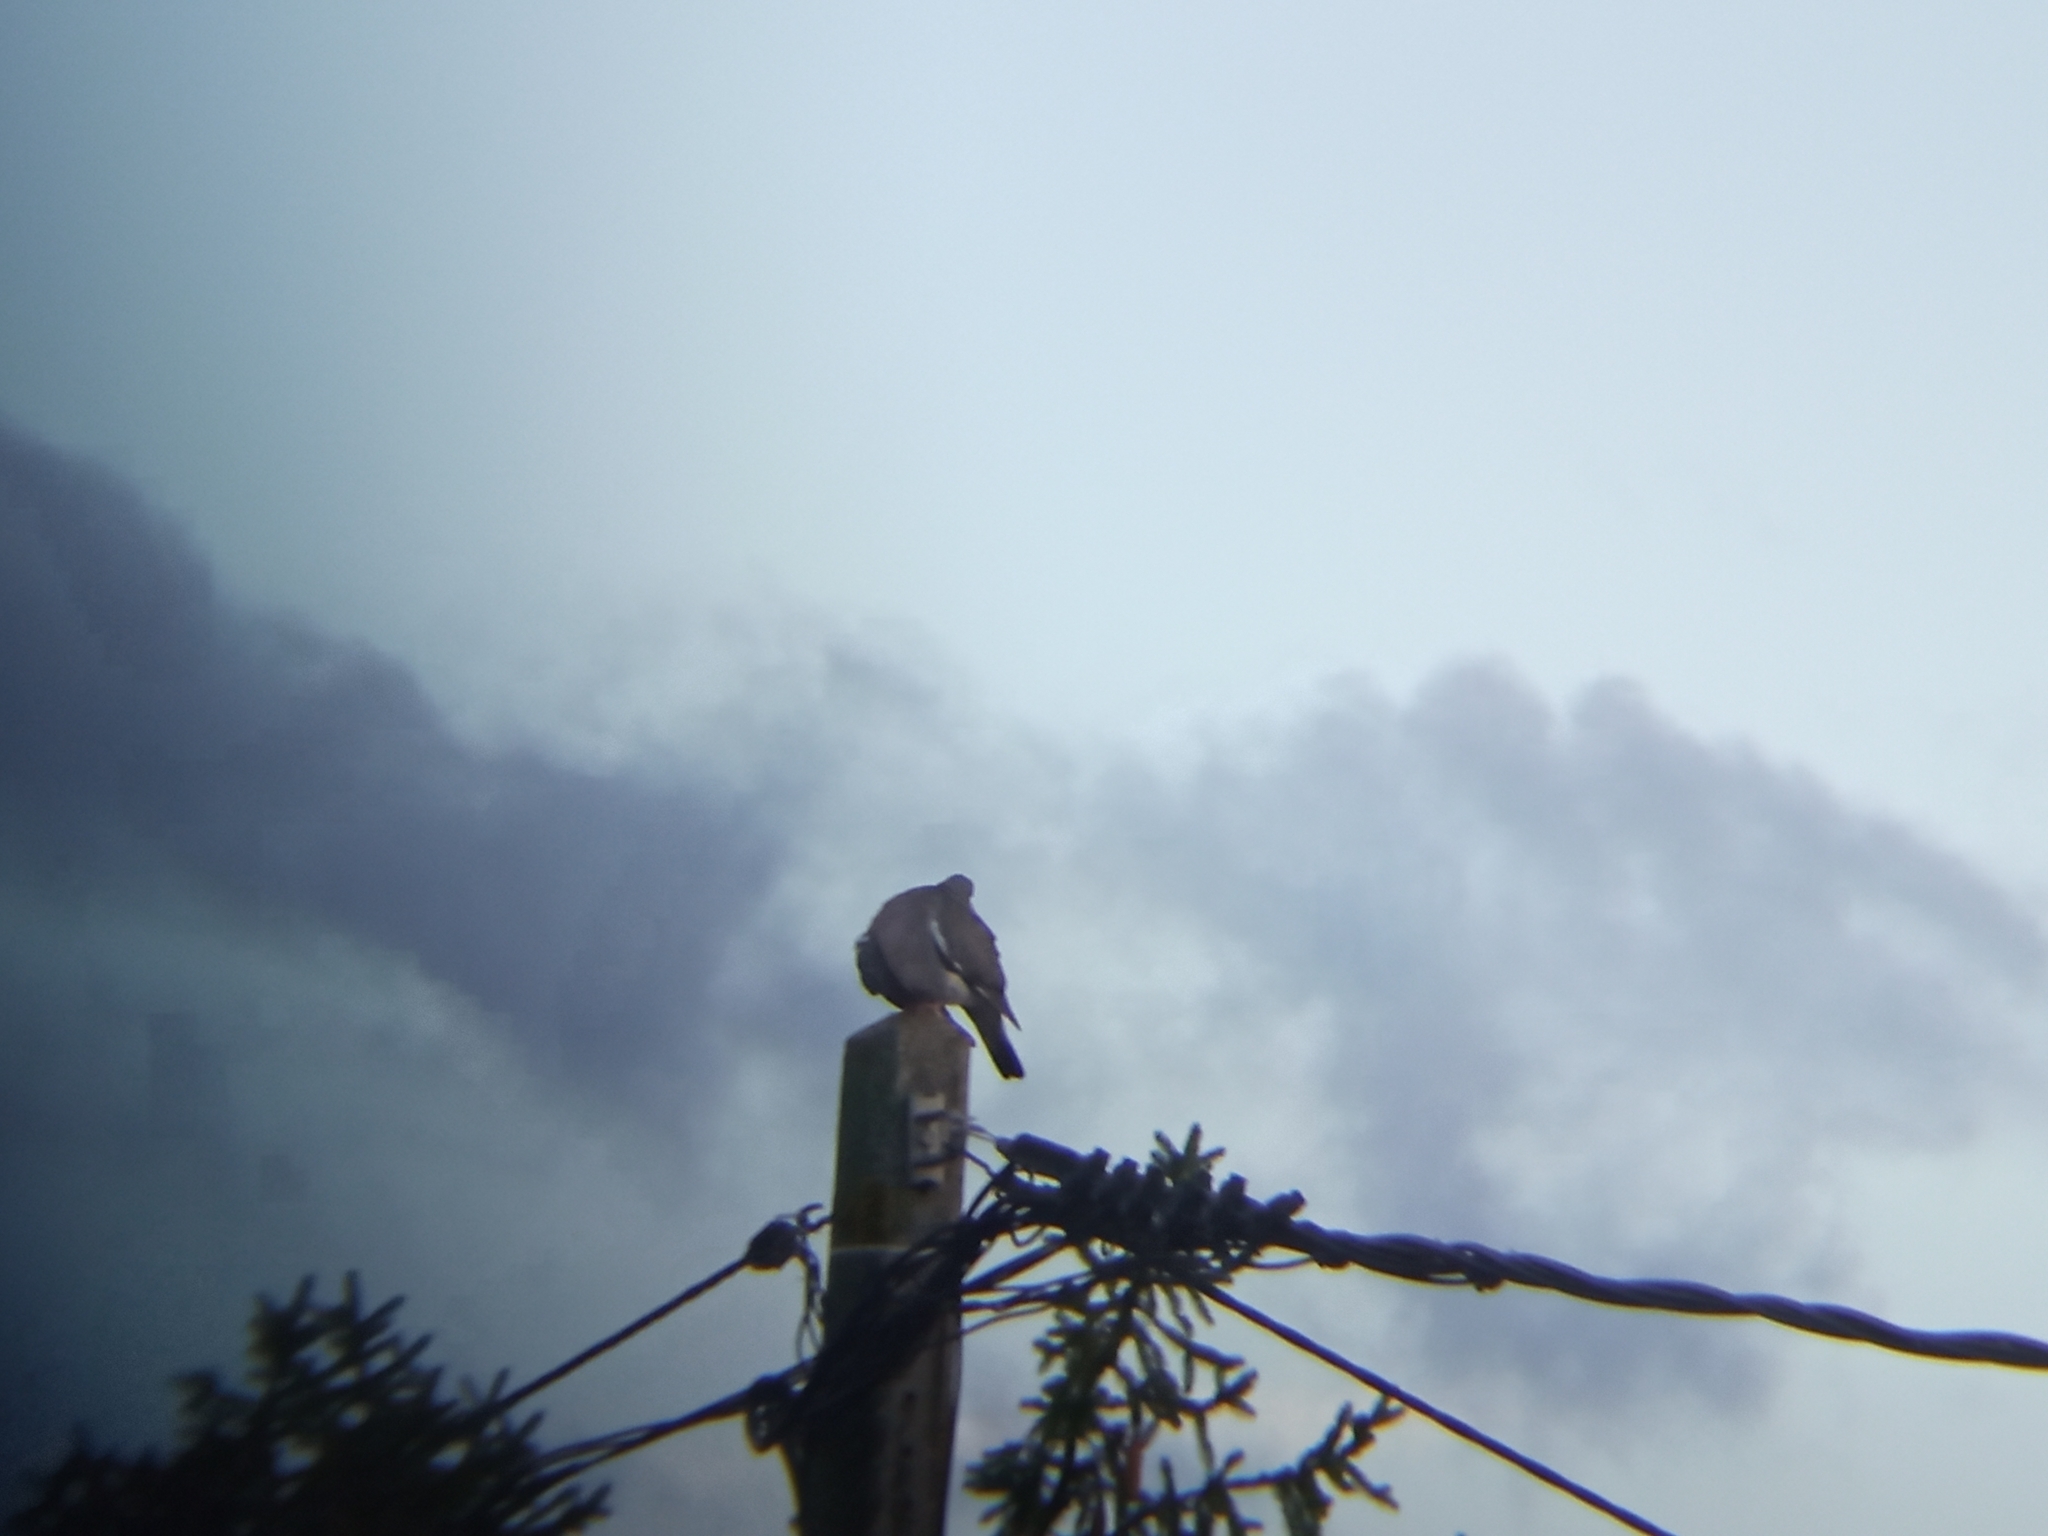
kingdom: Animalia
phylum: Chordata
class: Aves
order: Columbiformes
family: Columbidae
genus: Columba
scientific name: Columba palumbus
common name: Common wood pigeon
